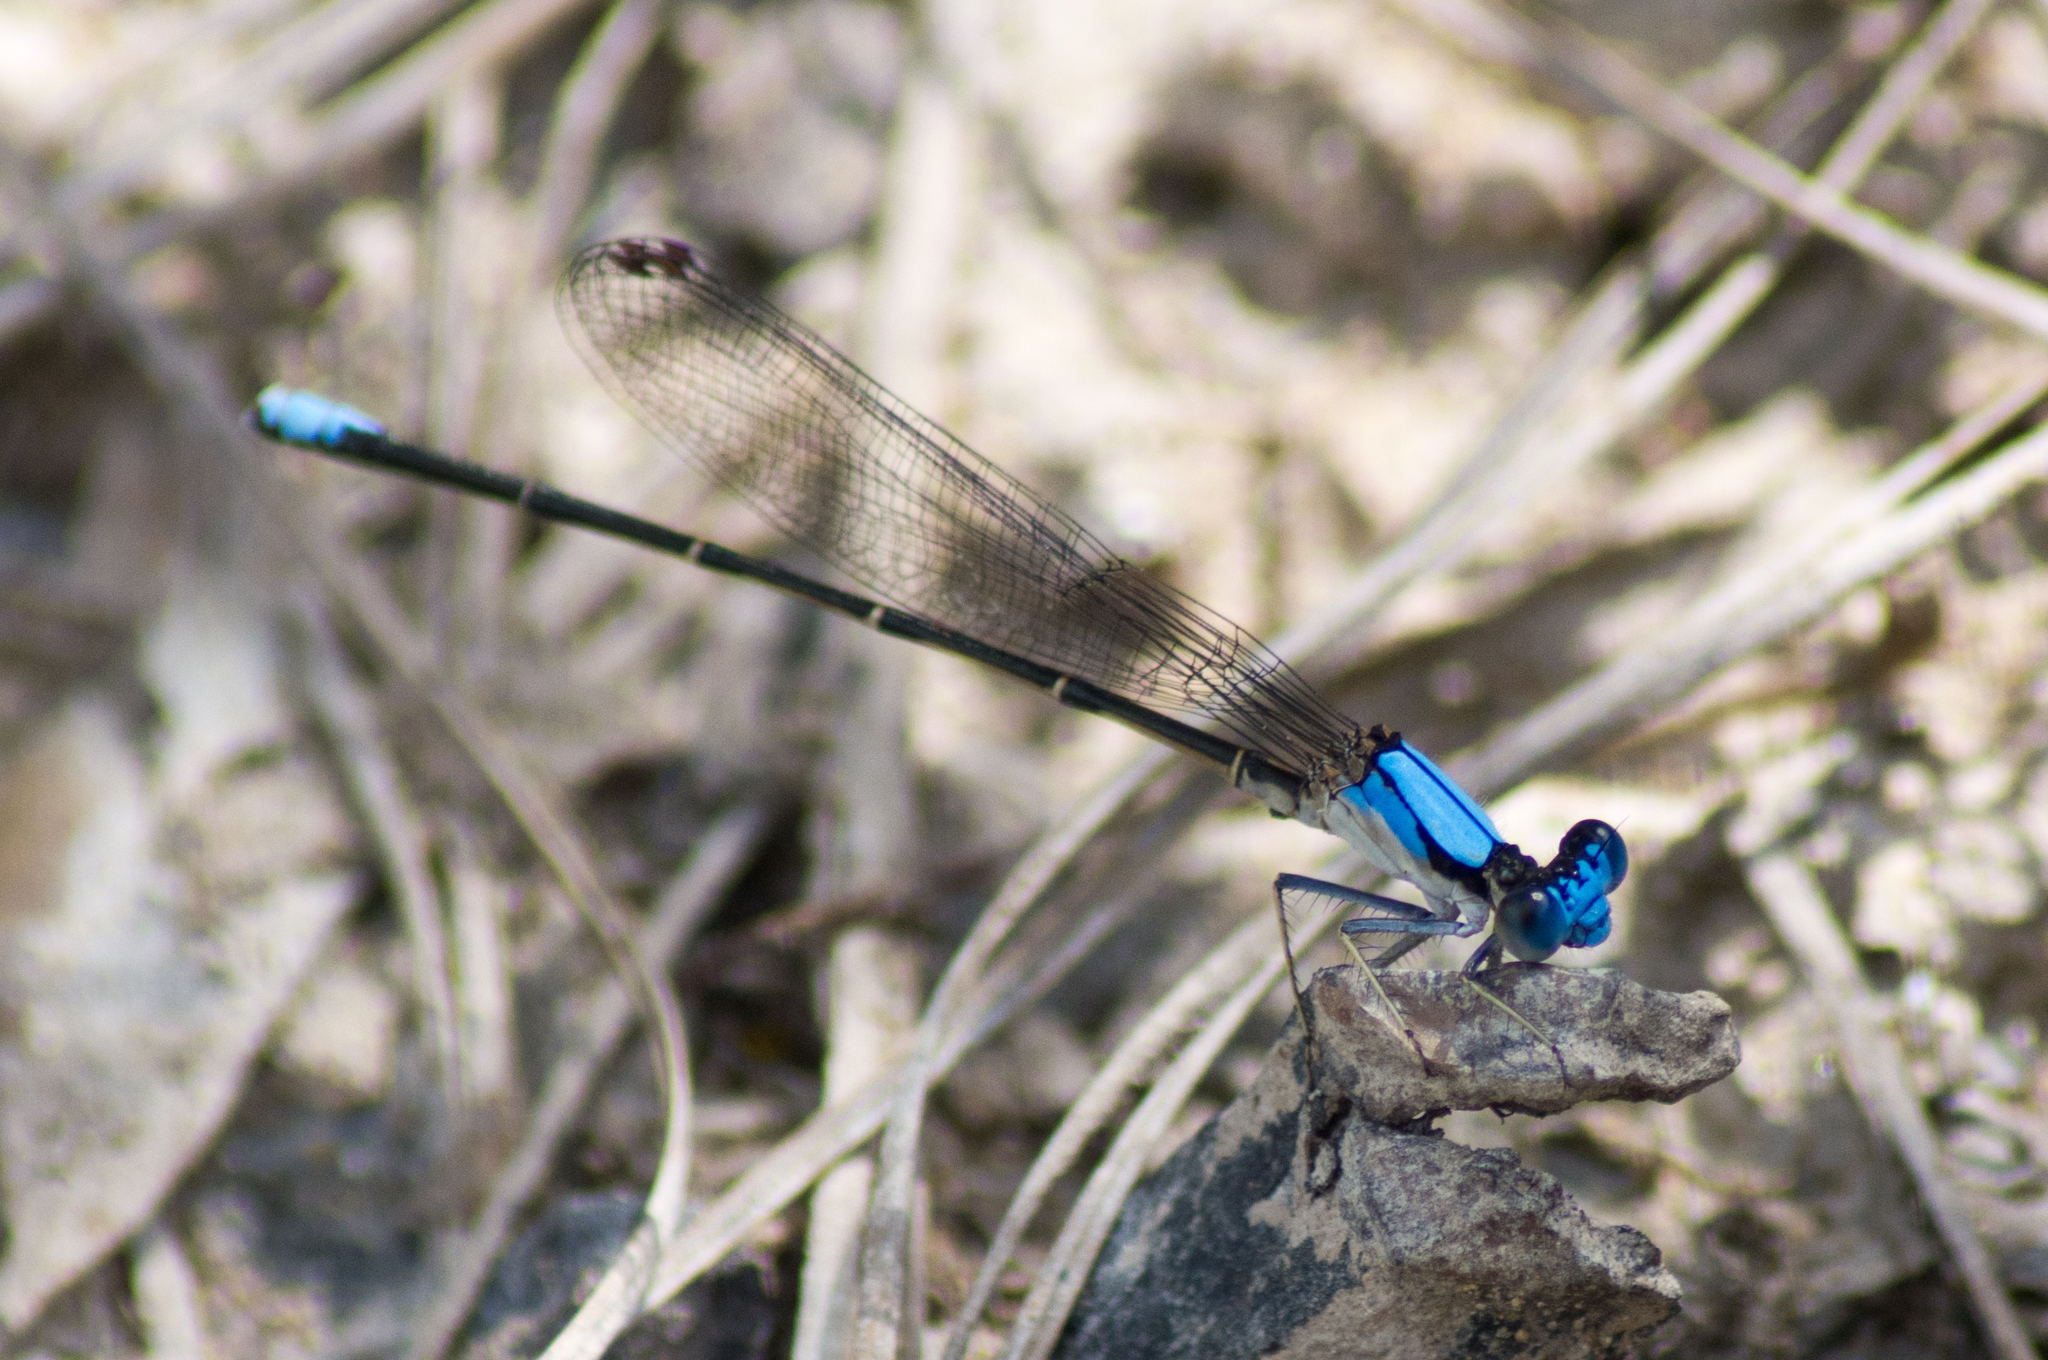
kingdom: Animalia
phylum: Arthropoda
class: Insecta
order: Odonata
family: Coenagrionidae
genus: Argia
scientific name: Argia apicalis
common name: Blue-fronted dancer
